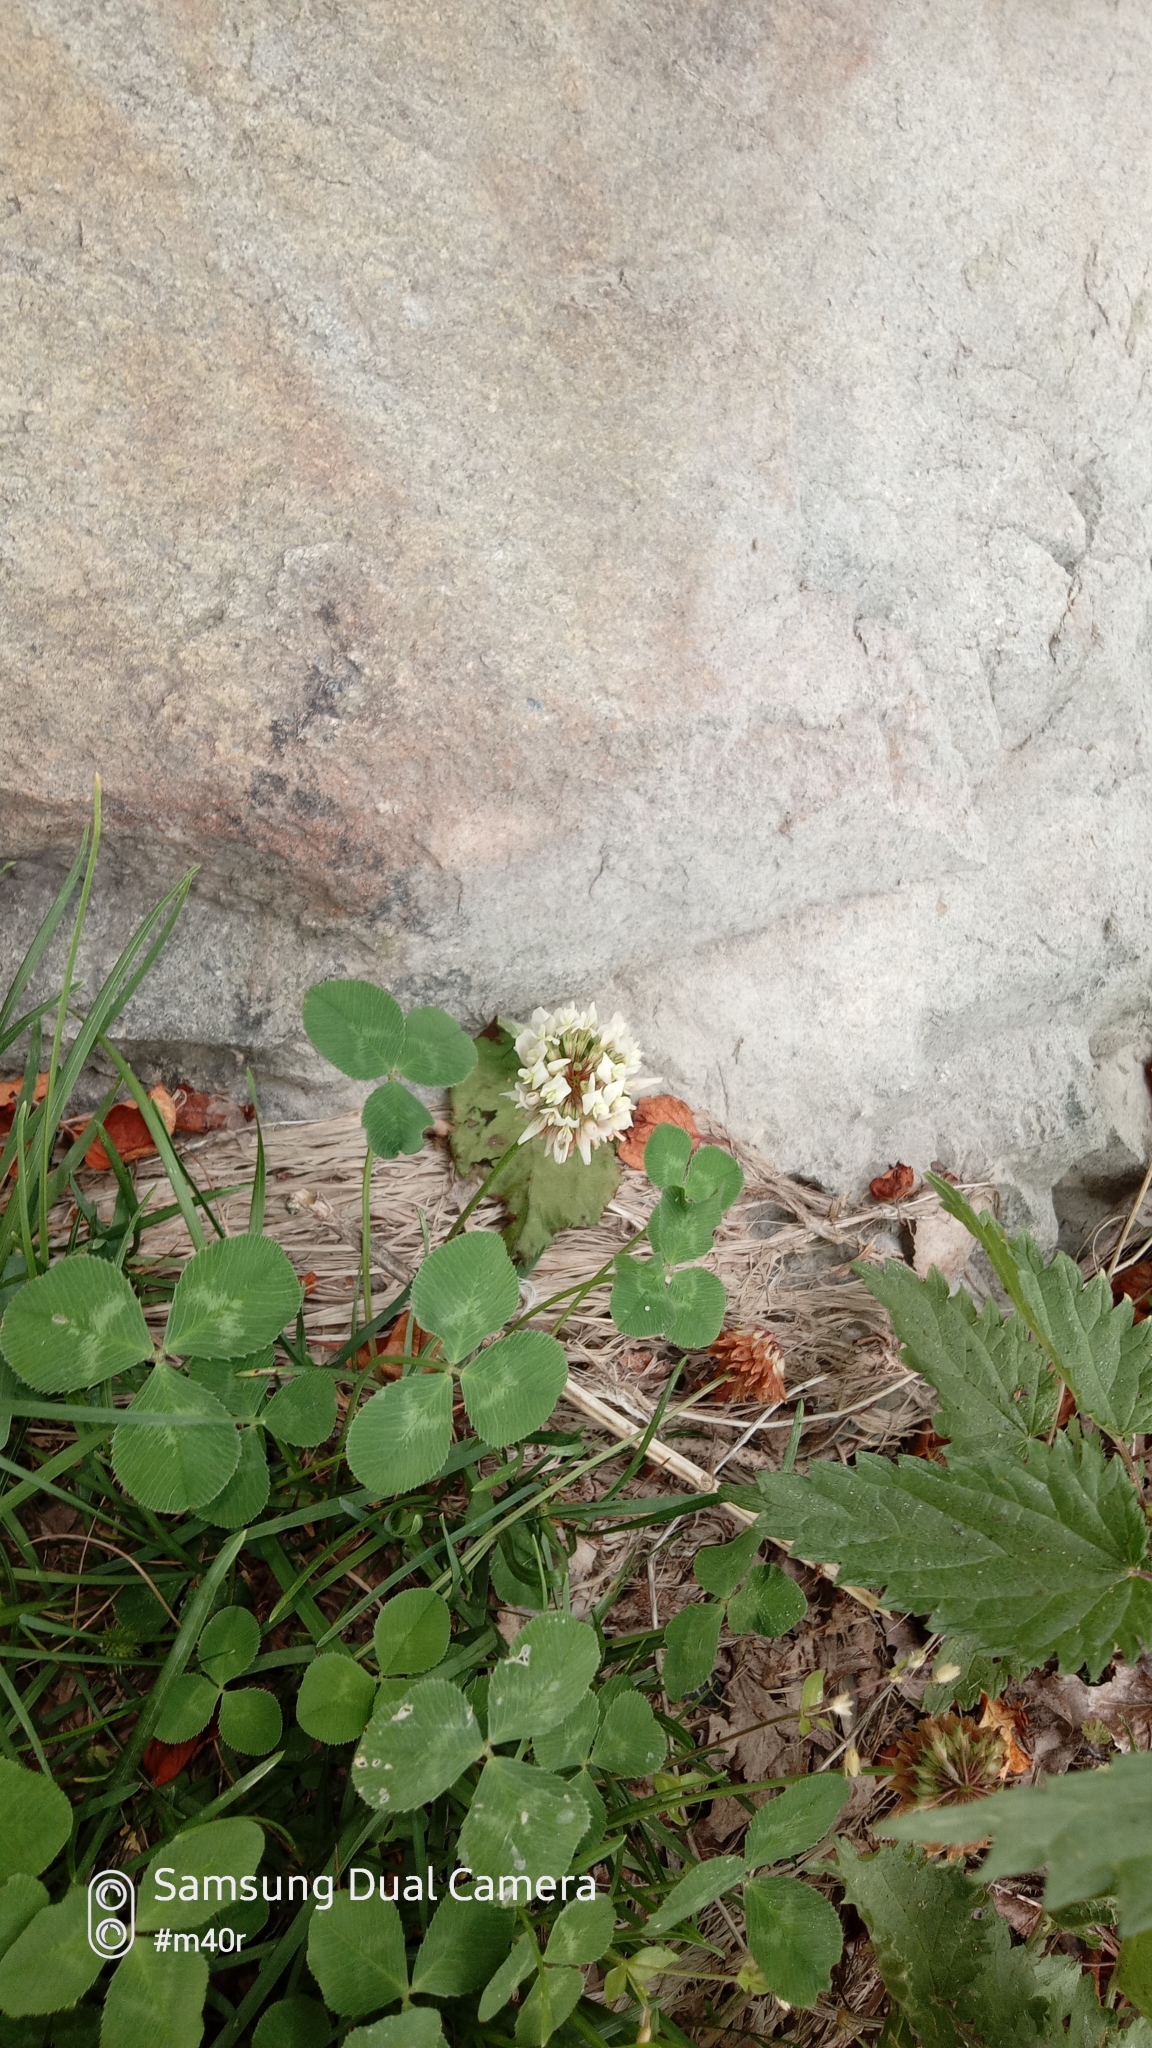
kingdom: Plantae
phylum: Tracheophyta
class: Magnoliopsida
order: Fabales
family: Fabaceae
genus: Trifolium
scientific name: Trifolium repens
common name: White clover
